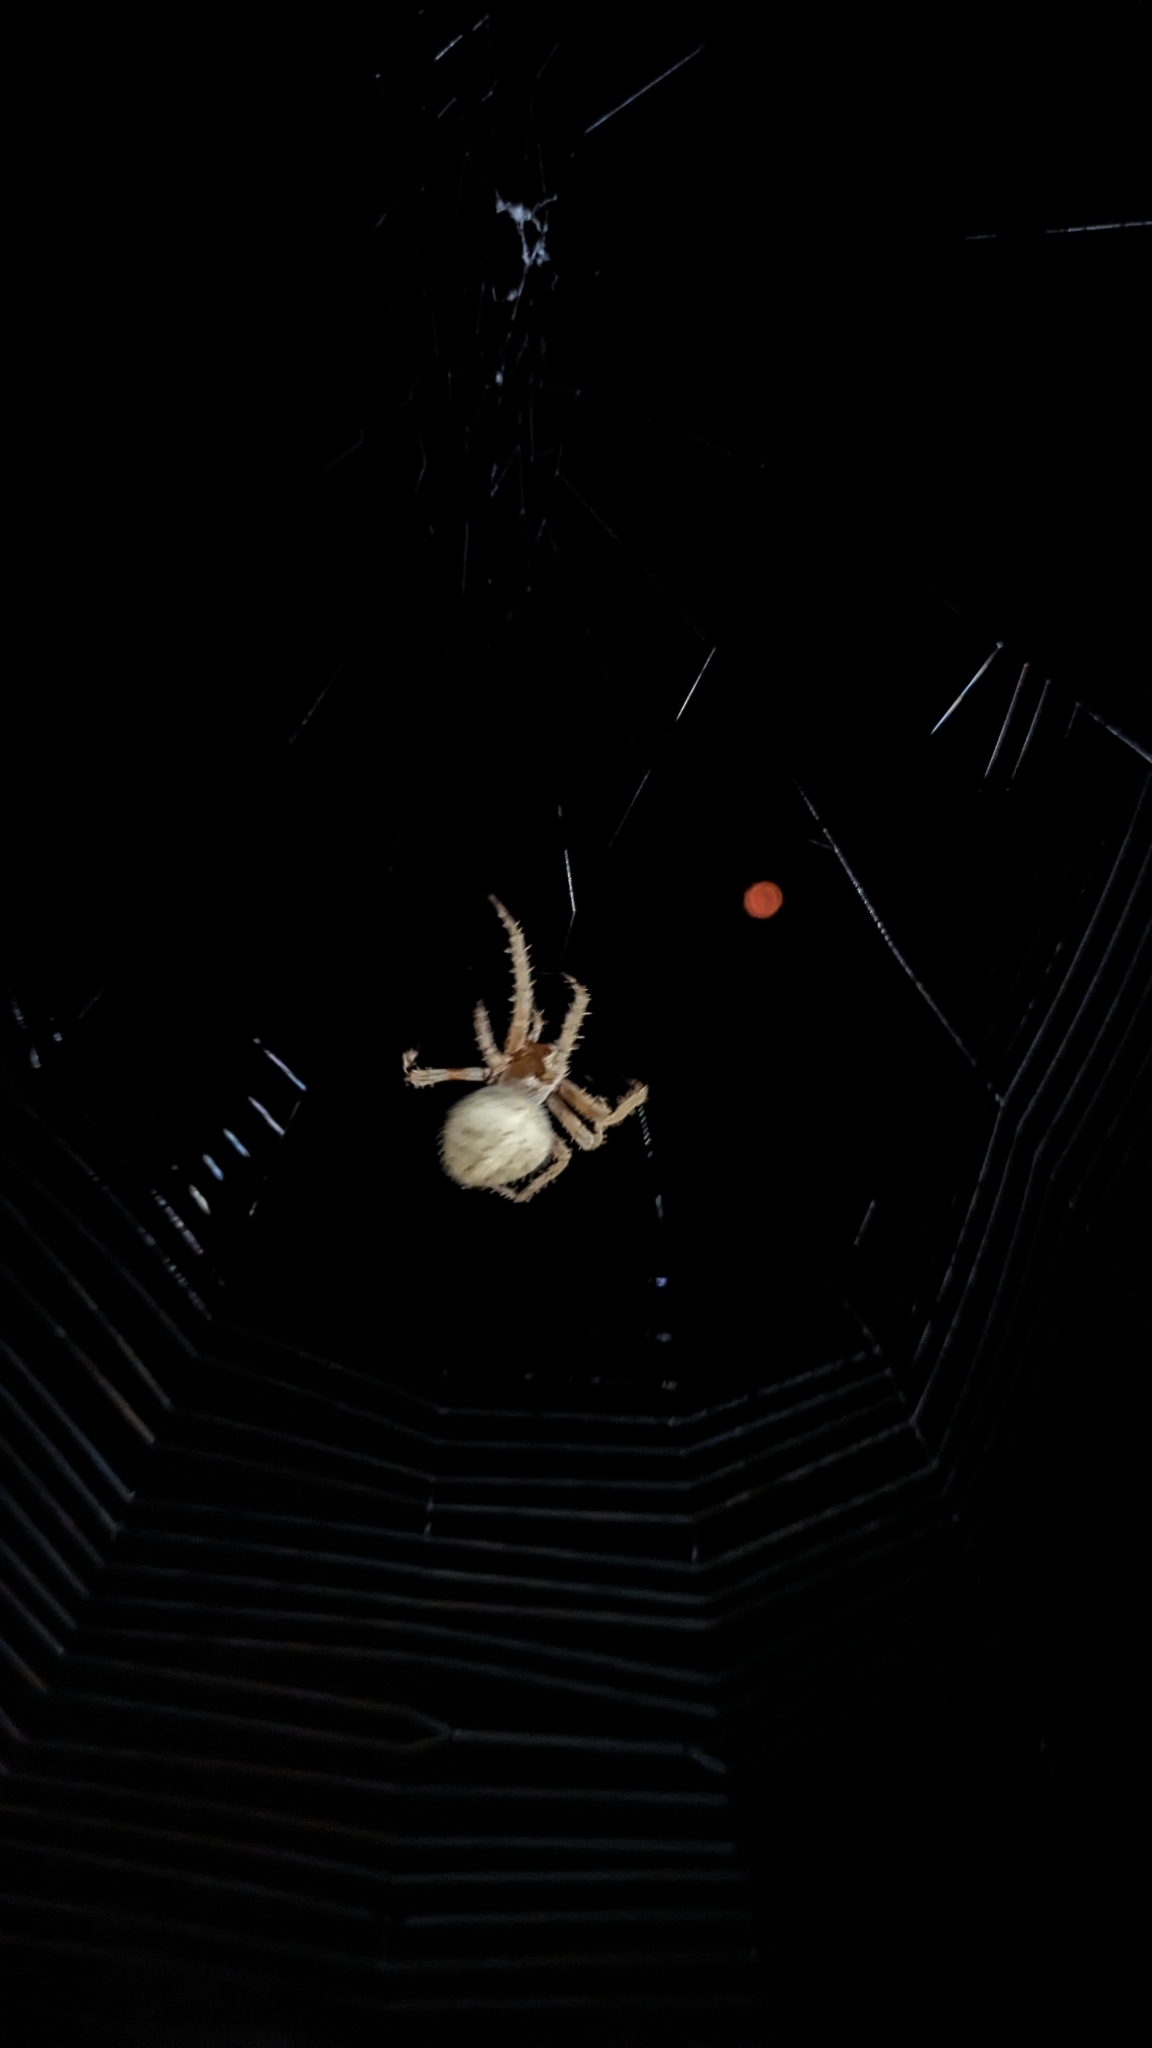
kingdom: Animalia
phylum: Arthropoda
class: Arachnida
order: Araneae
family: Araneidae
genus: Neoscona
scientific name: Neoscona crucifera
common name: Spotted orbweaver
